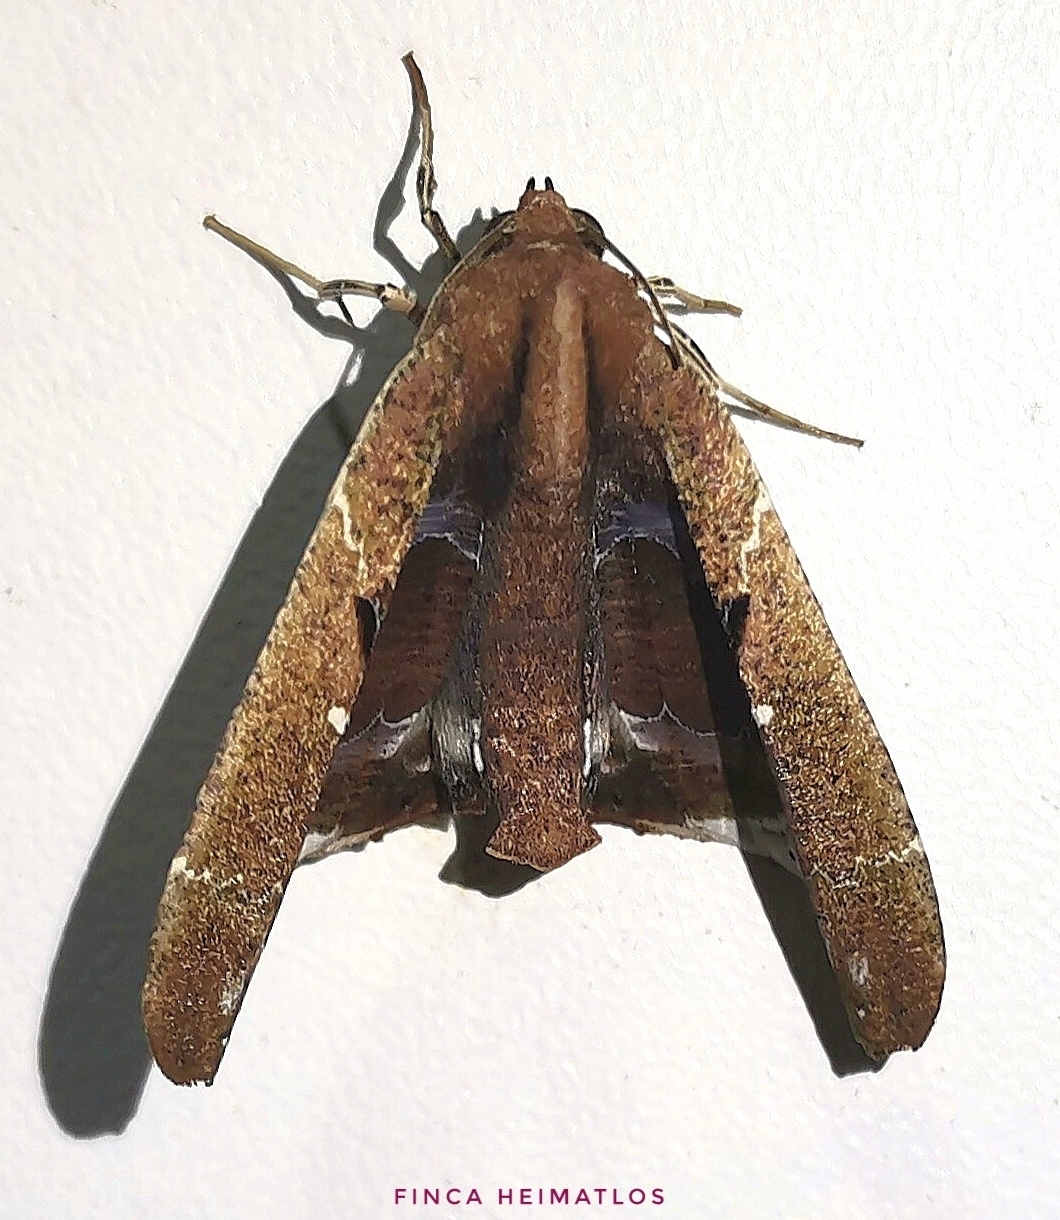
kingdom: Animalia
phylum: Arthropoda
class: Insecta
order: Lepidoptera
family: Geometridae
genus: Pero
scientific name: Pero odonaria
